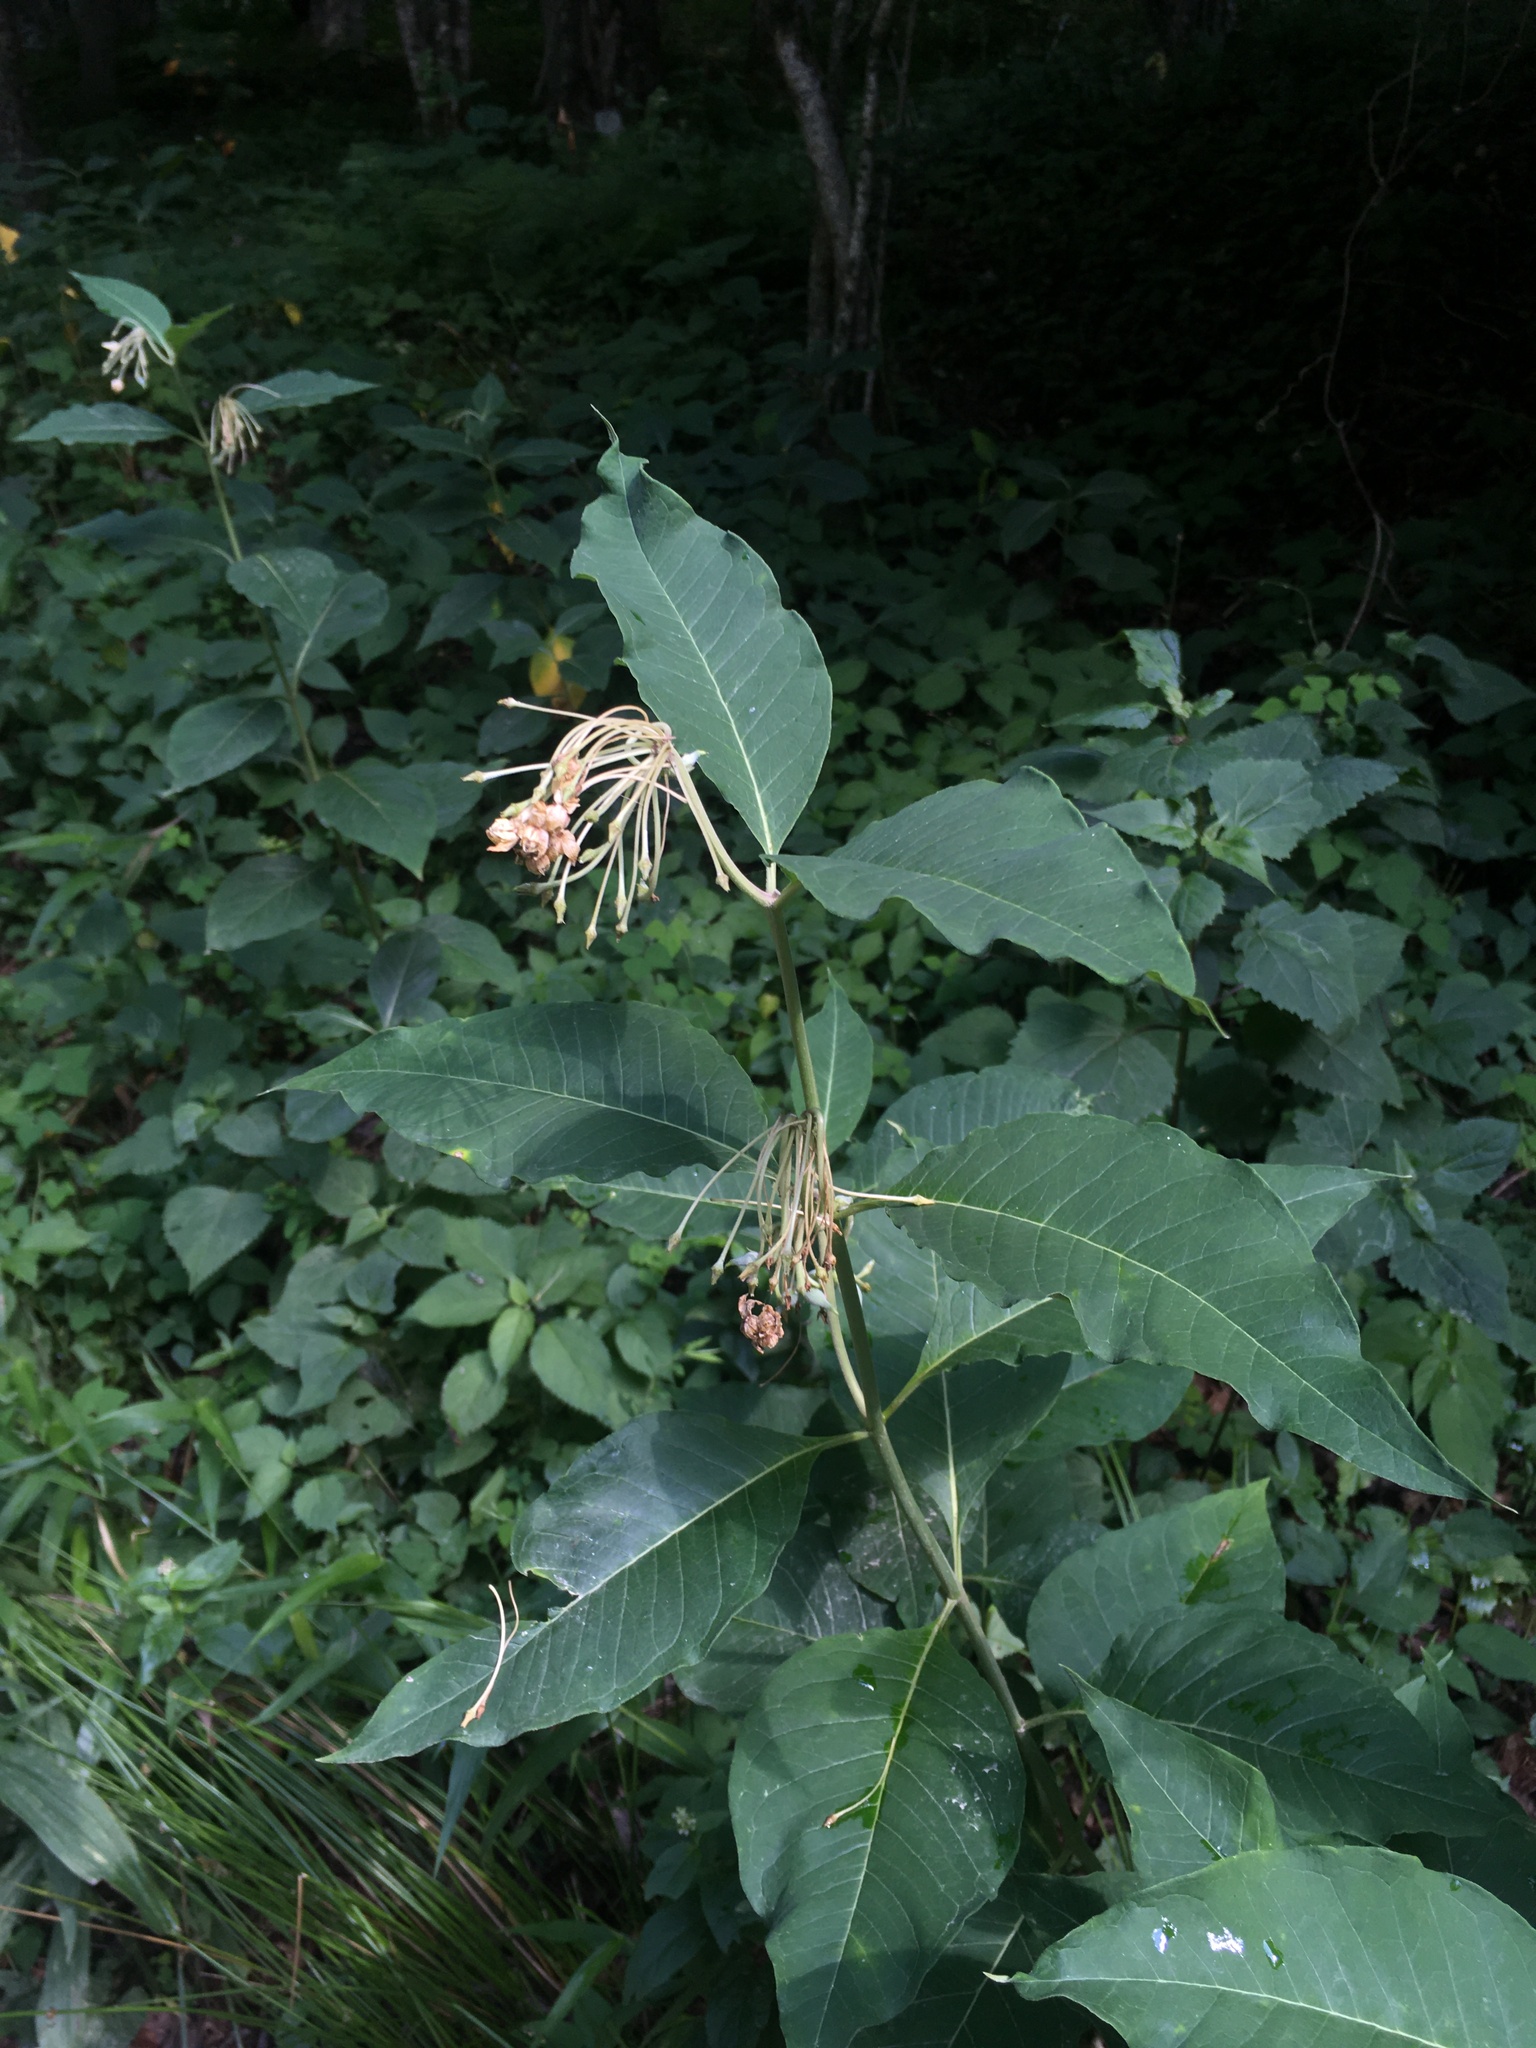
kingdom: Plantae
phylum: Tracheophyta
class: Magnoliopsida
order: Gentianales
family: Apocynaceae
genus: Asclepias
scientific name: Asclepias exaltata
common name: Poke milkweed
